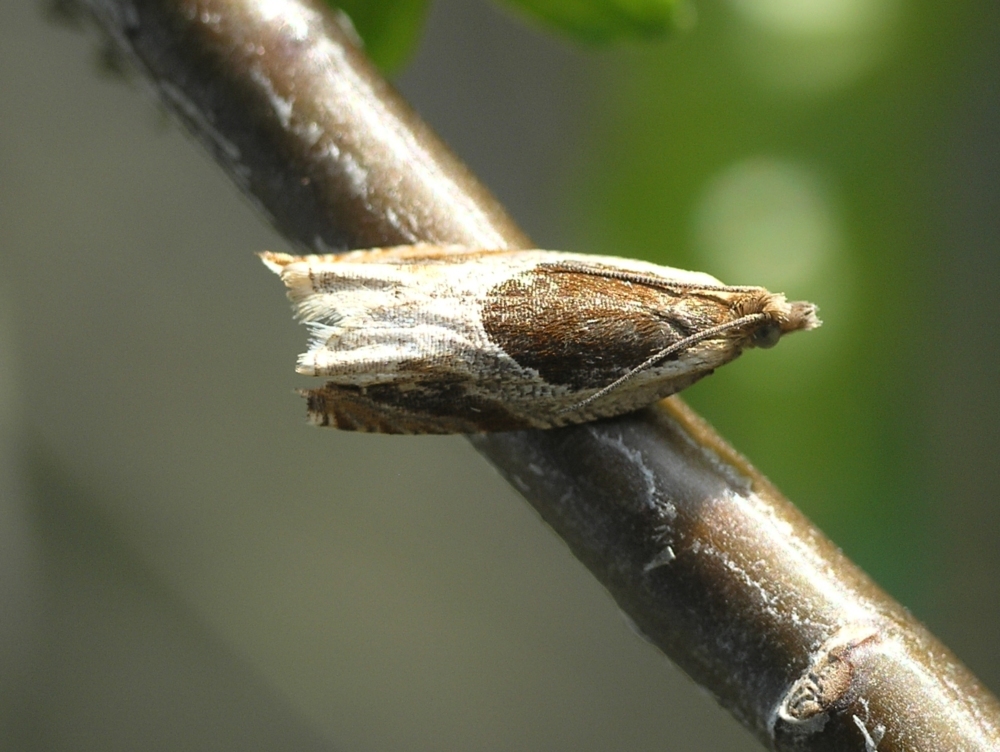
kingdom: Animalia
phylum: Arthropoda
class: Insecta
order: Lepidoptera
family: Tortricidae
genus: Ancylis
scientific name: Ancylis unculana
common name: Buckthorn roller
